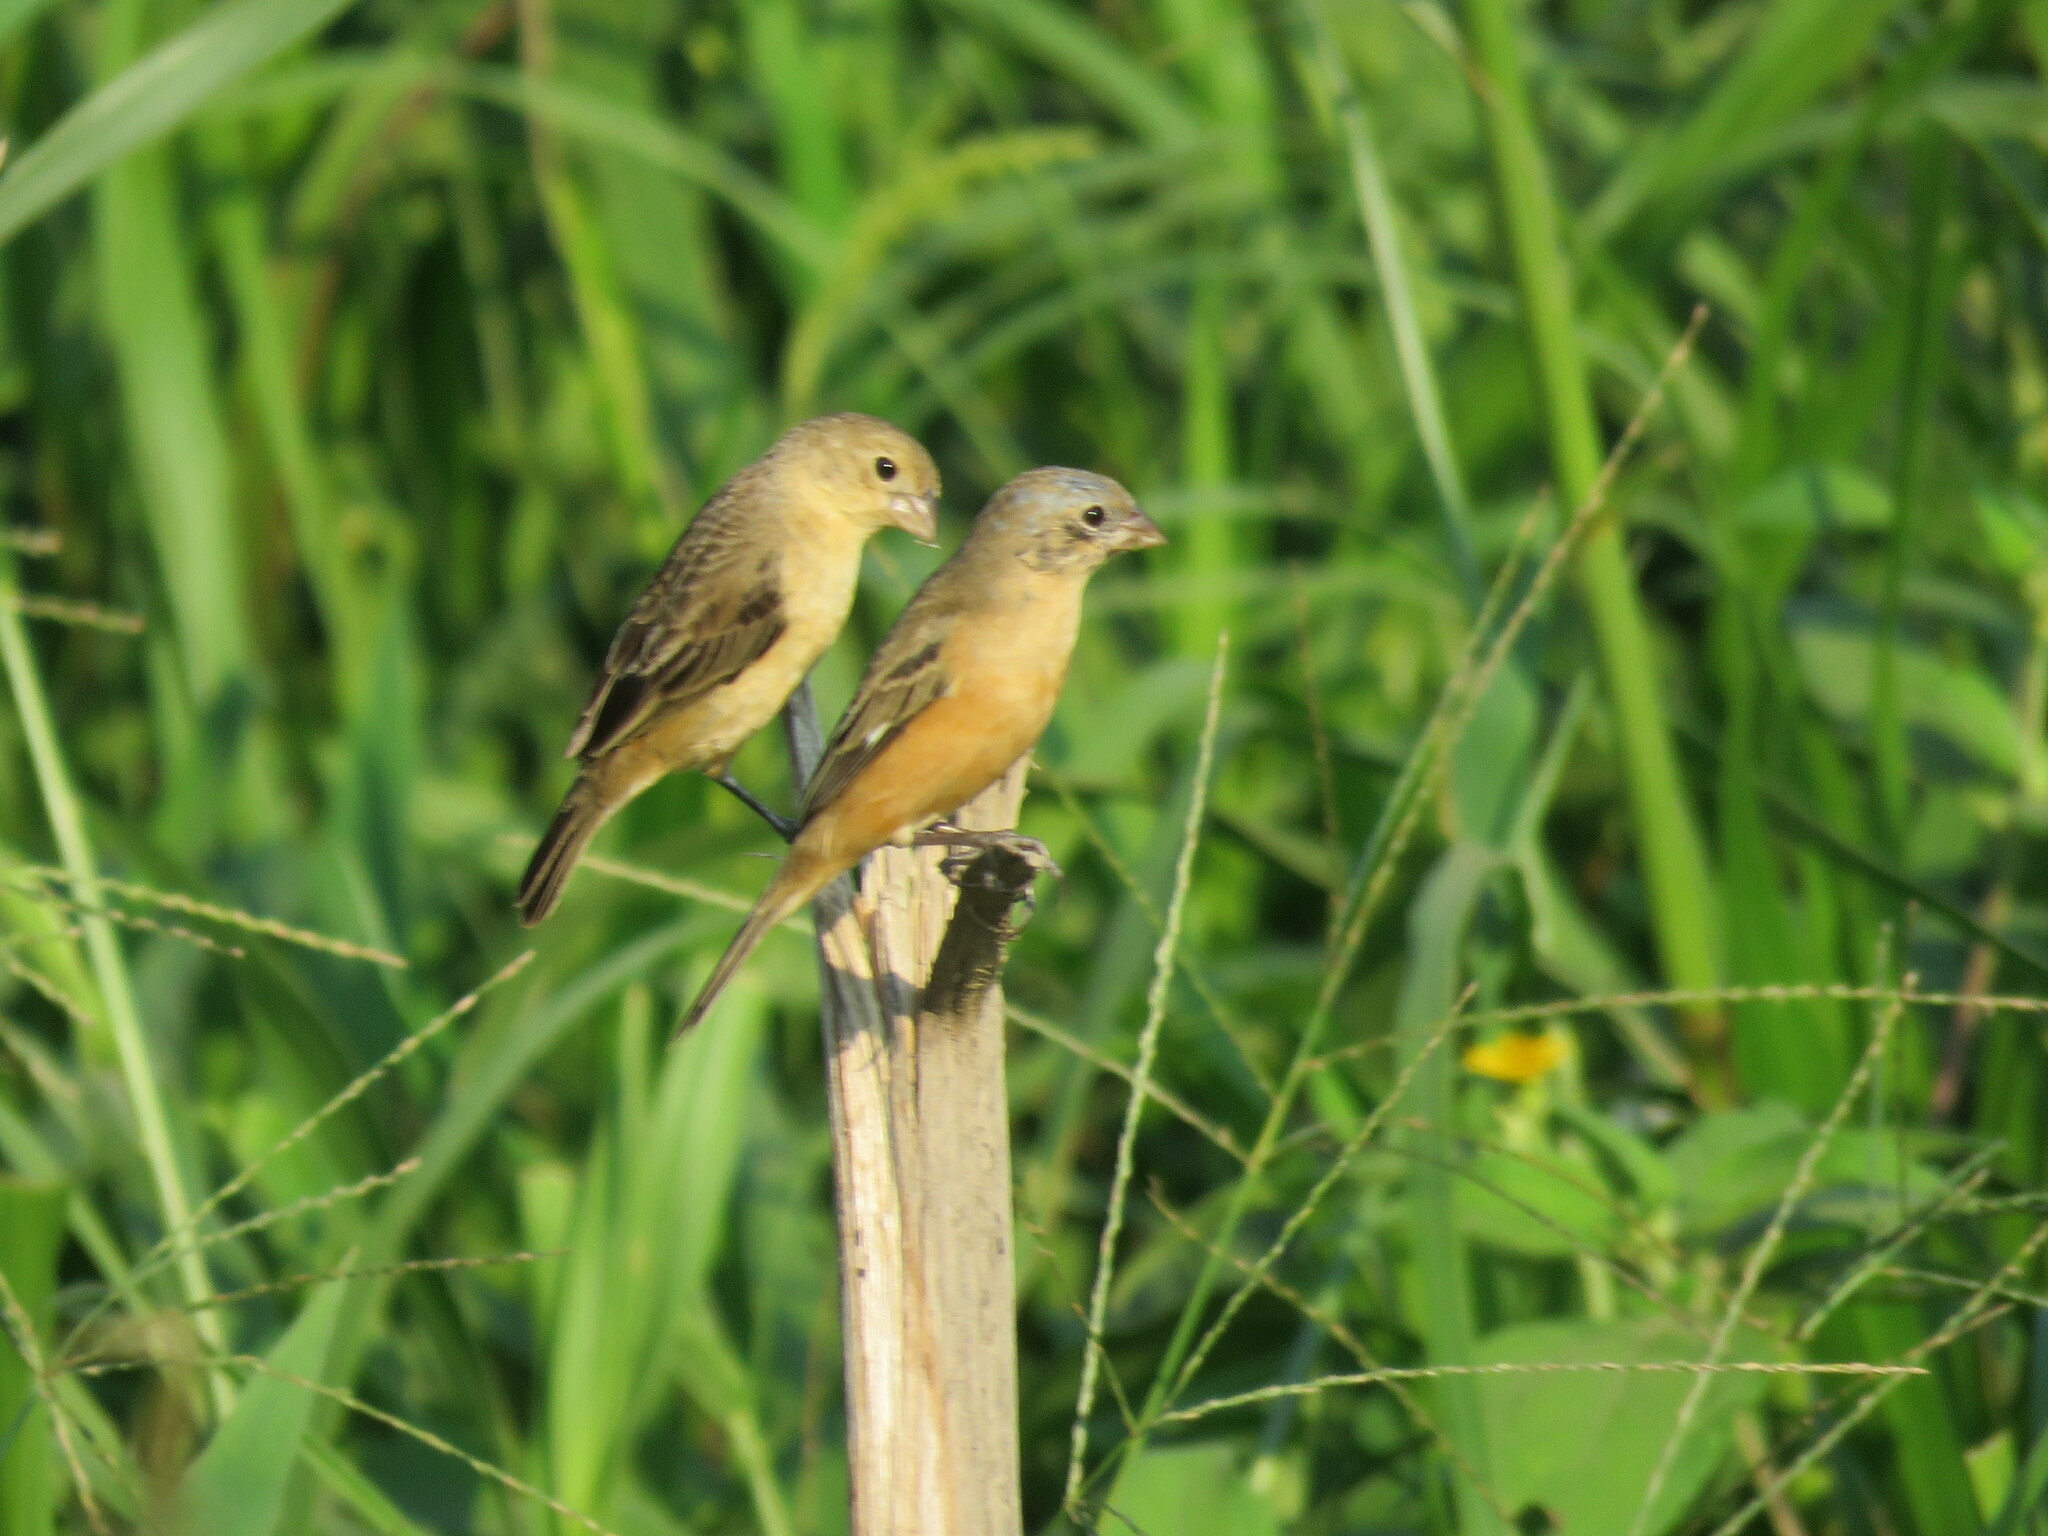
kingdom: Animalia
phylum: Chordata
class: Aves
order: Passeriformes
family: Thraupidae
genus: Sporophila
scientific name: Sporophila ruficollis
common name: Dark-throated seedeater
